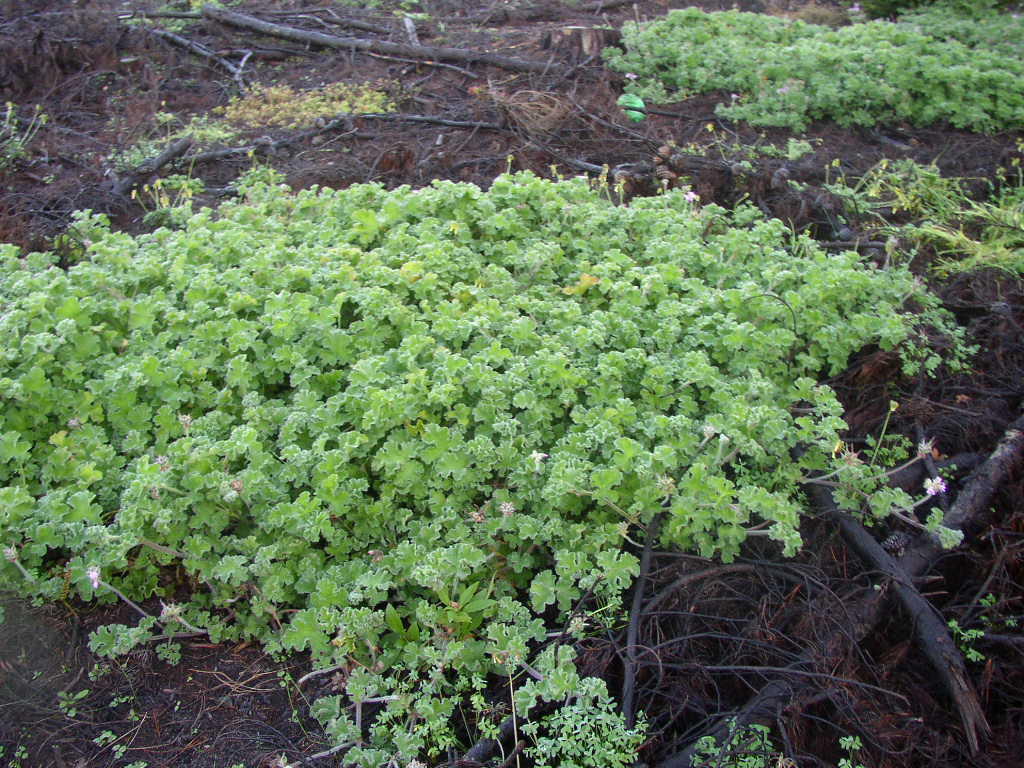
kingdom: Plantae
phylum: Tracheophyta
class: Magnoliopsida
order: Geraniales
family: Geraniaceae
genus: Pelargonium
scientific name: Pelargonium capitatum
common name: Rose scented geranium
